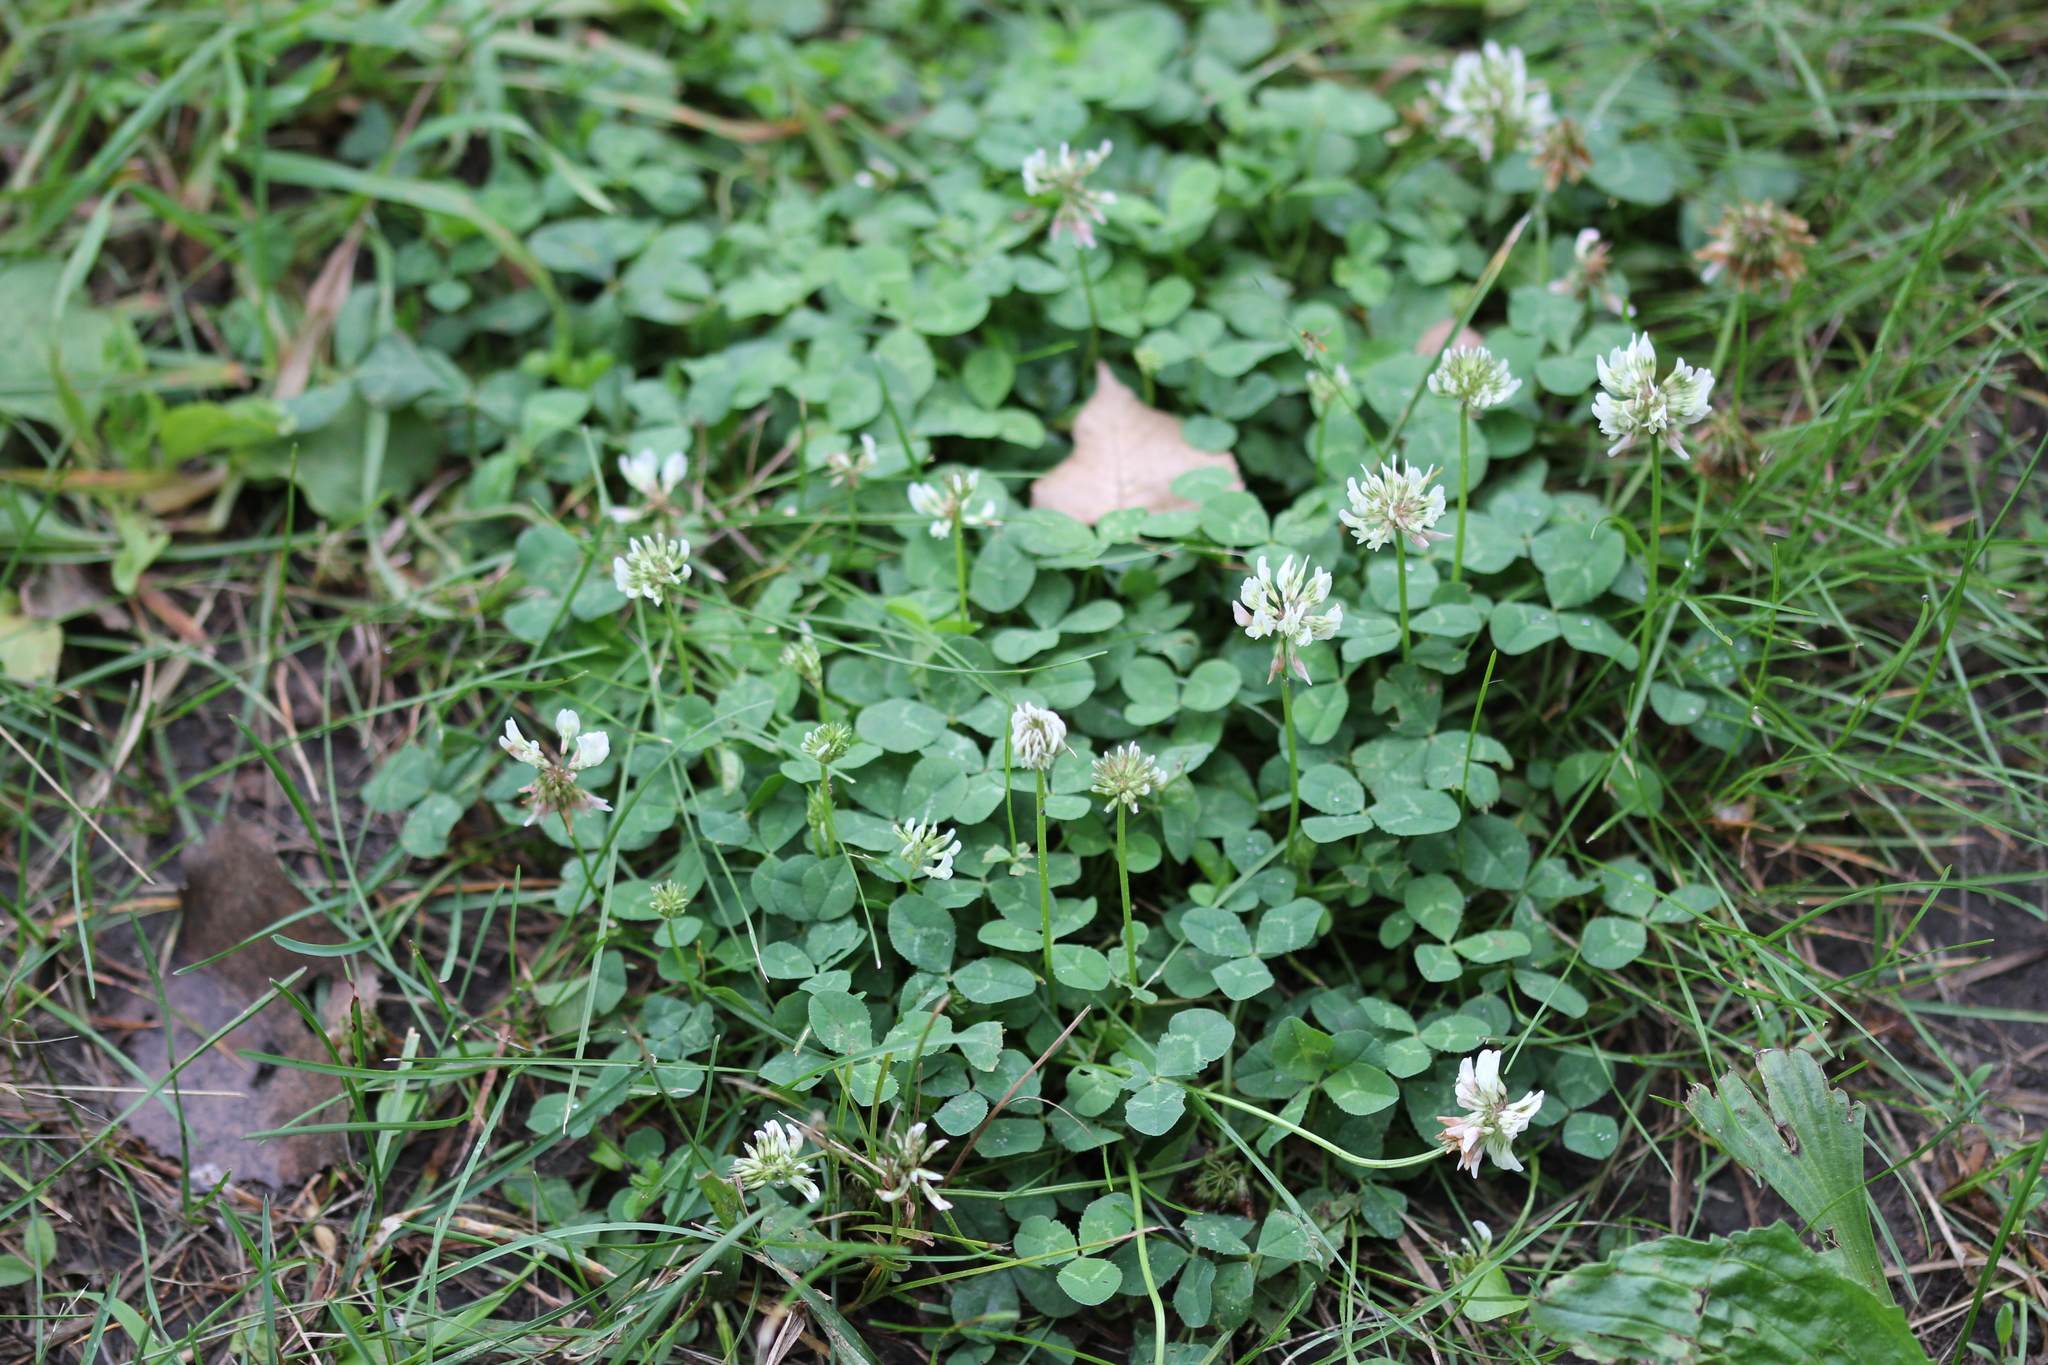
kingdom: Plantae
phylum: Tracheophyta
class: Magnoliopsida
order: Fabales
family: Fabaceae
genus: Trifolium
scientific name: Trifolium repens
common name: White clover
